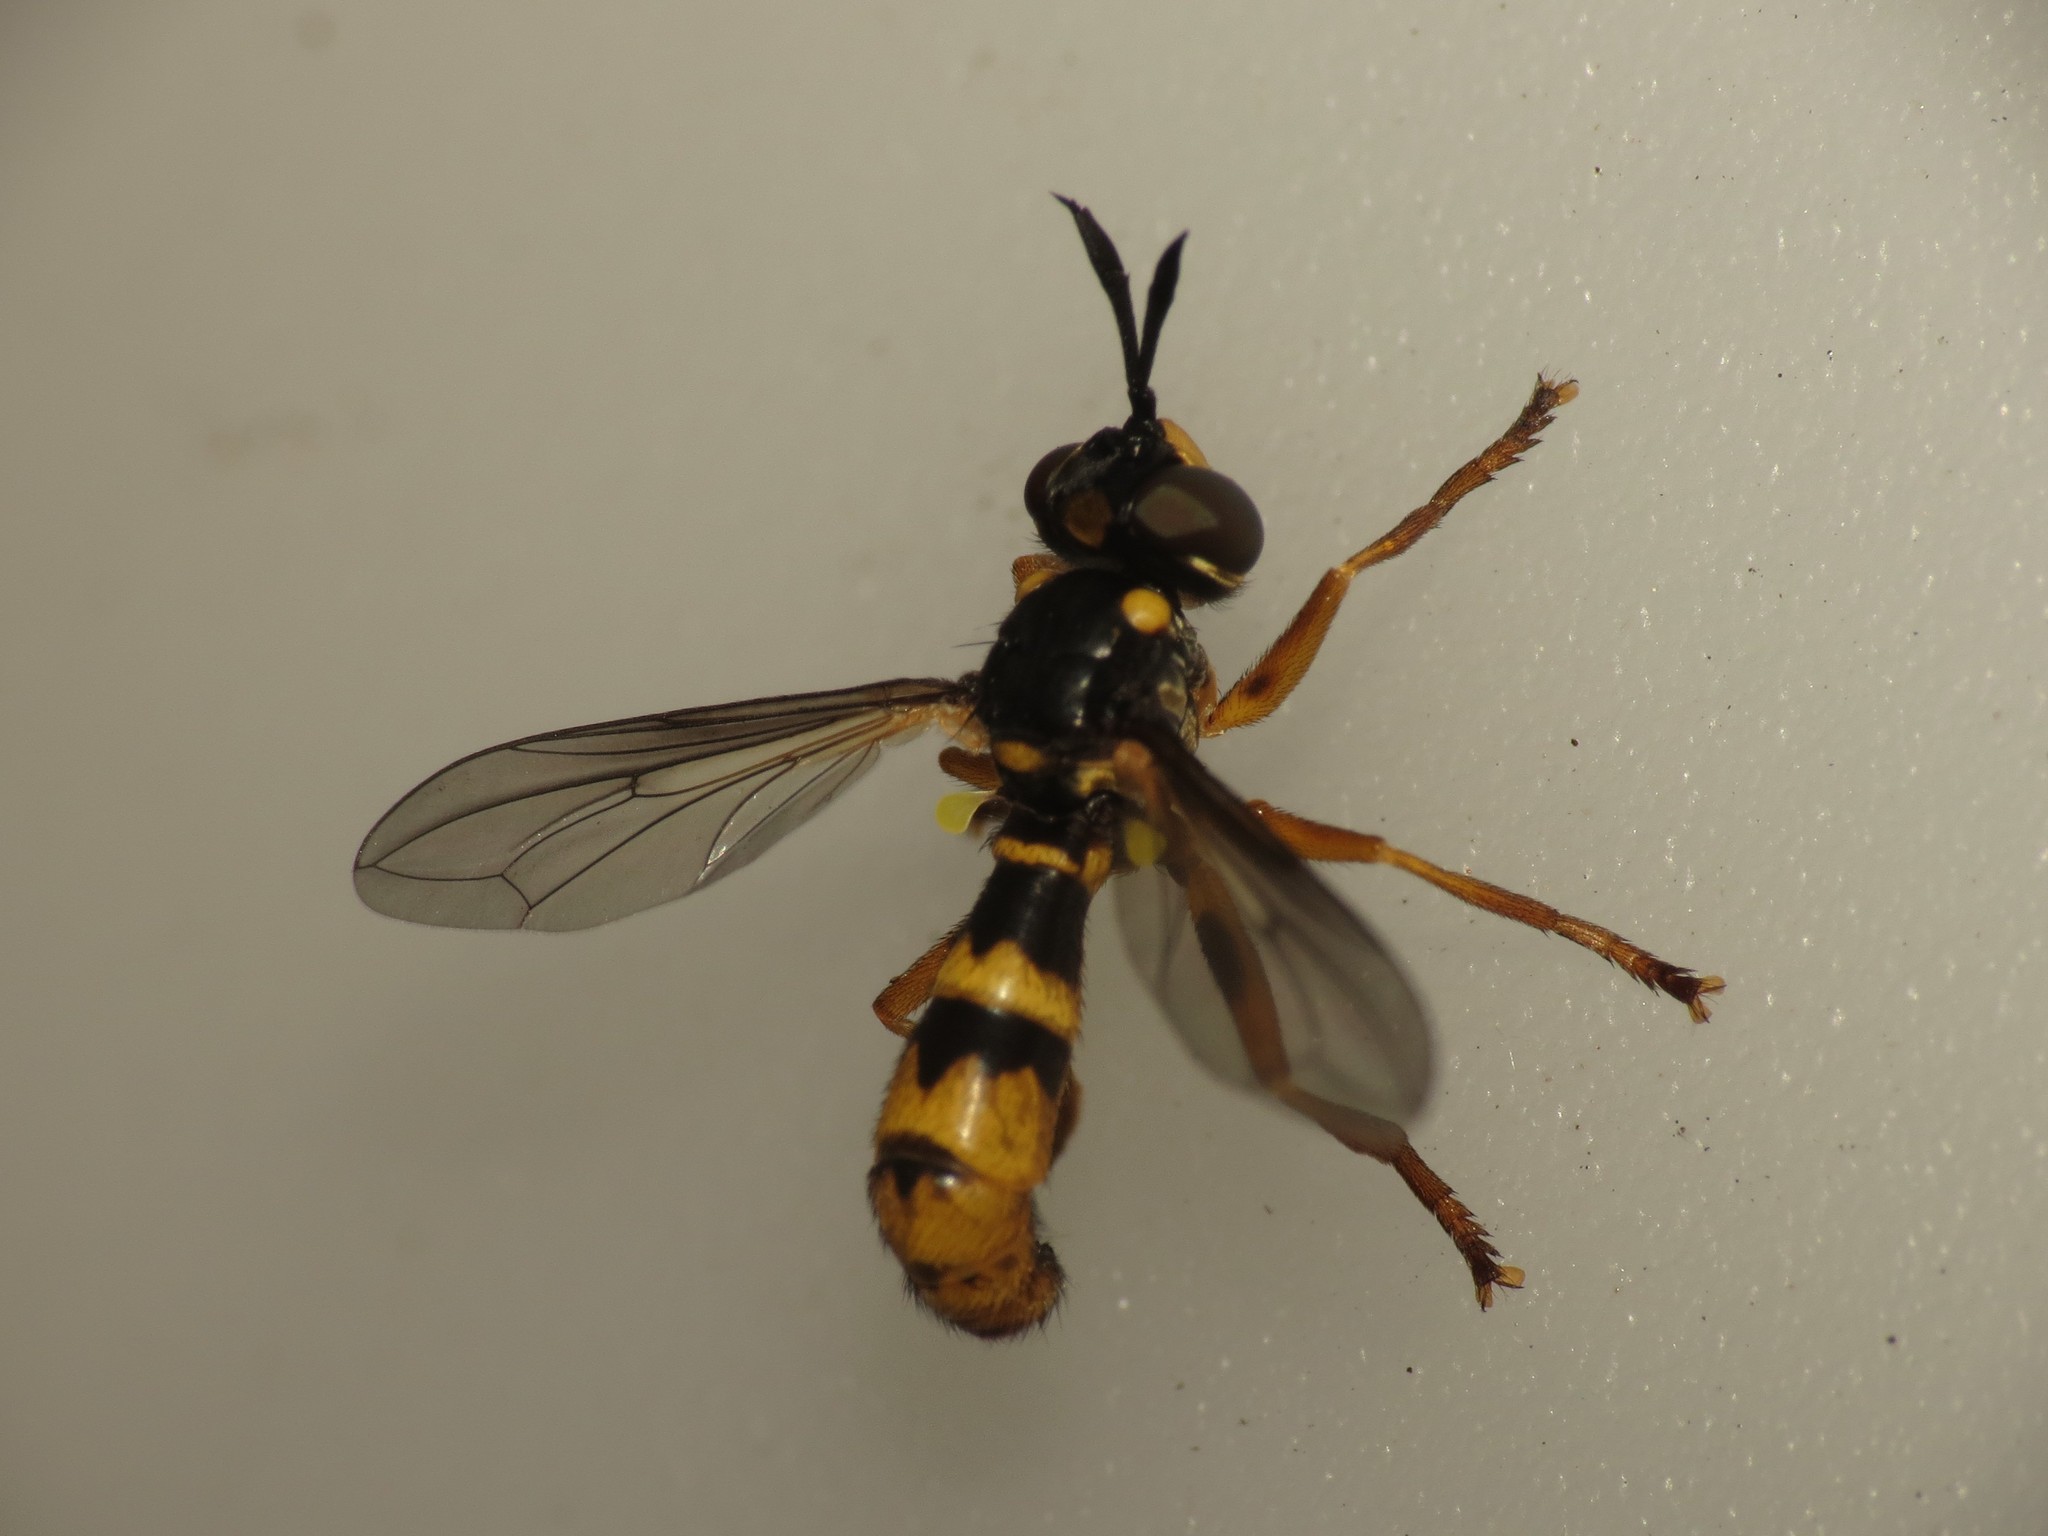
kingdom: Animalia
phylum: Arthropoda
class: Insecta
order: Diptera
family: Conopidae
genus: Leopoldius
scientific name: Leopoldius signatus
